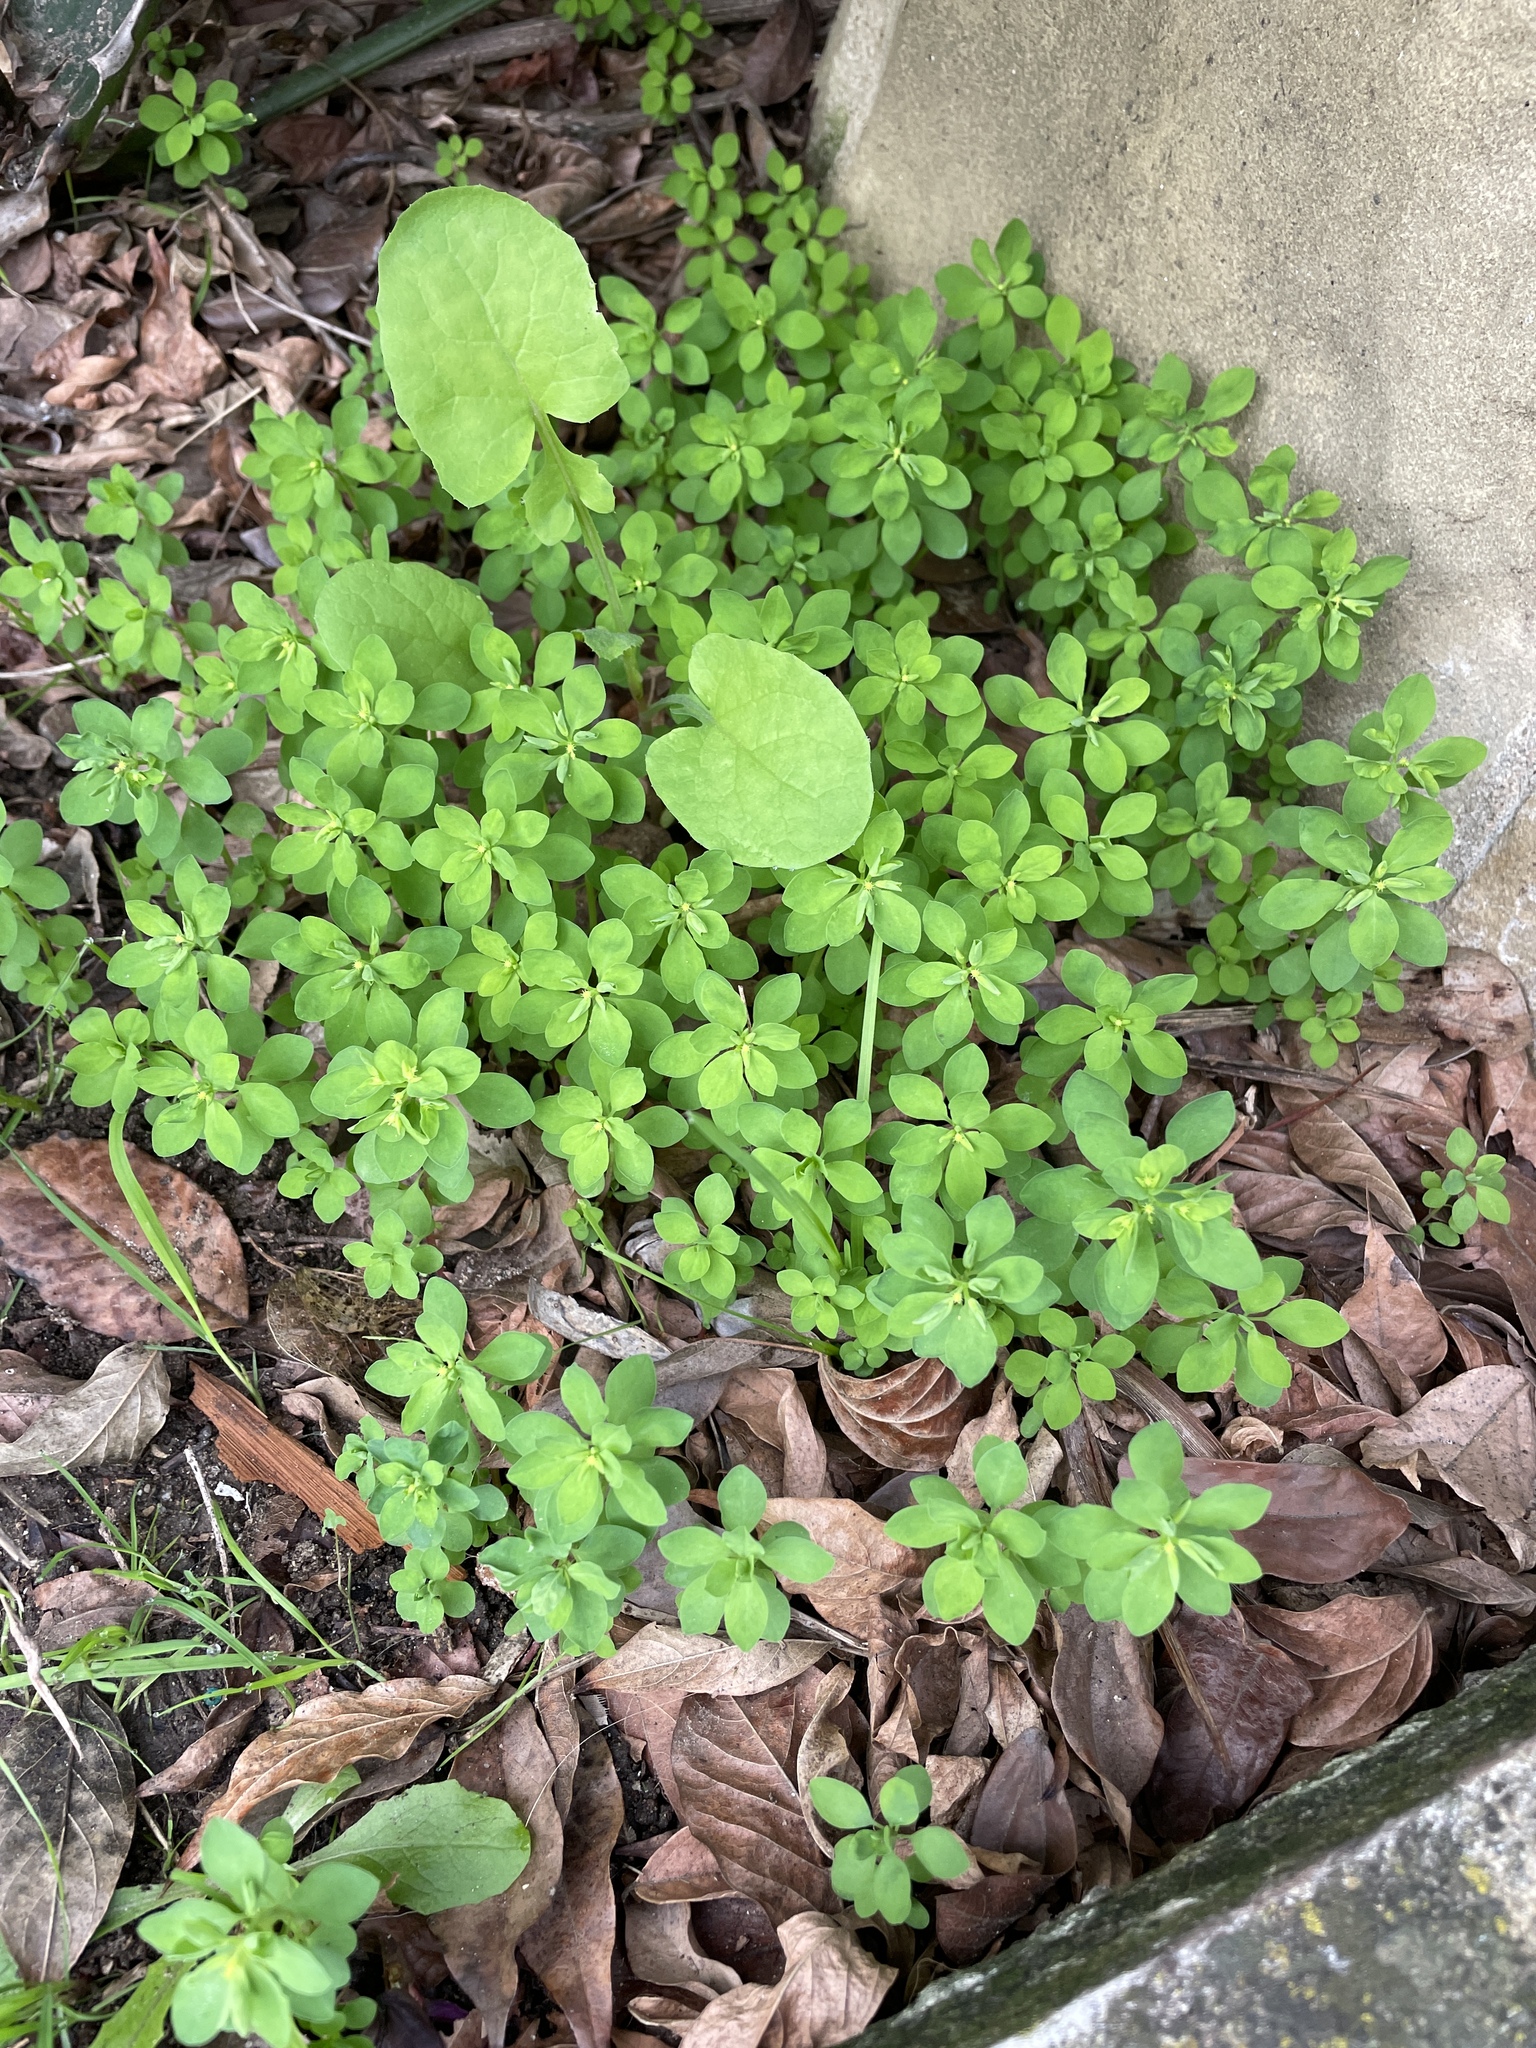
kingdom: Plantae
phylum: Tracheophyta
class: Magnoliopsida
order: Malpighiales
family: Euphorbiaceae
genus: Euphorbia
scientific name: Euphorbia peplus
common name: Petty spurge
